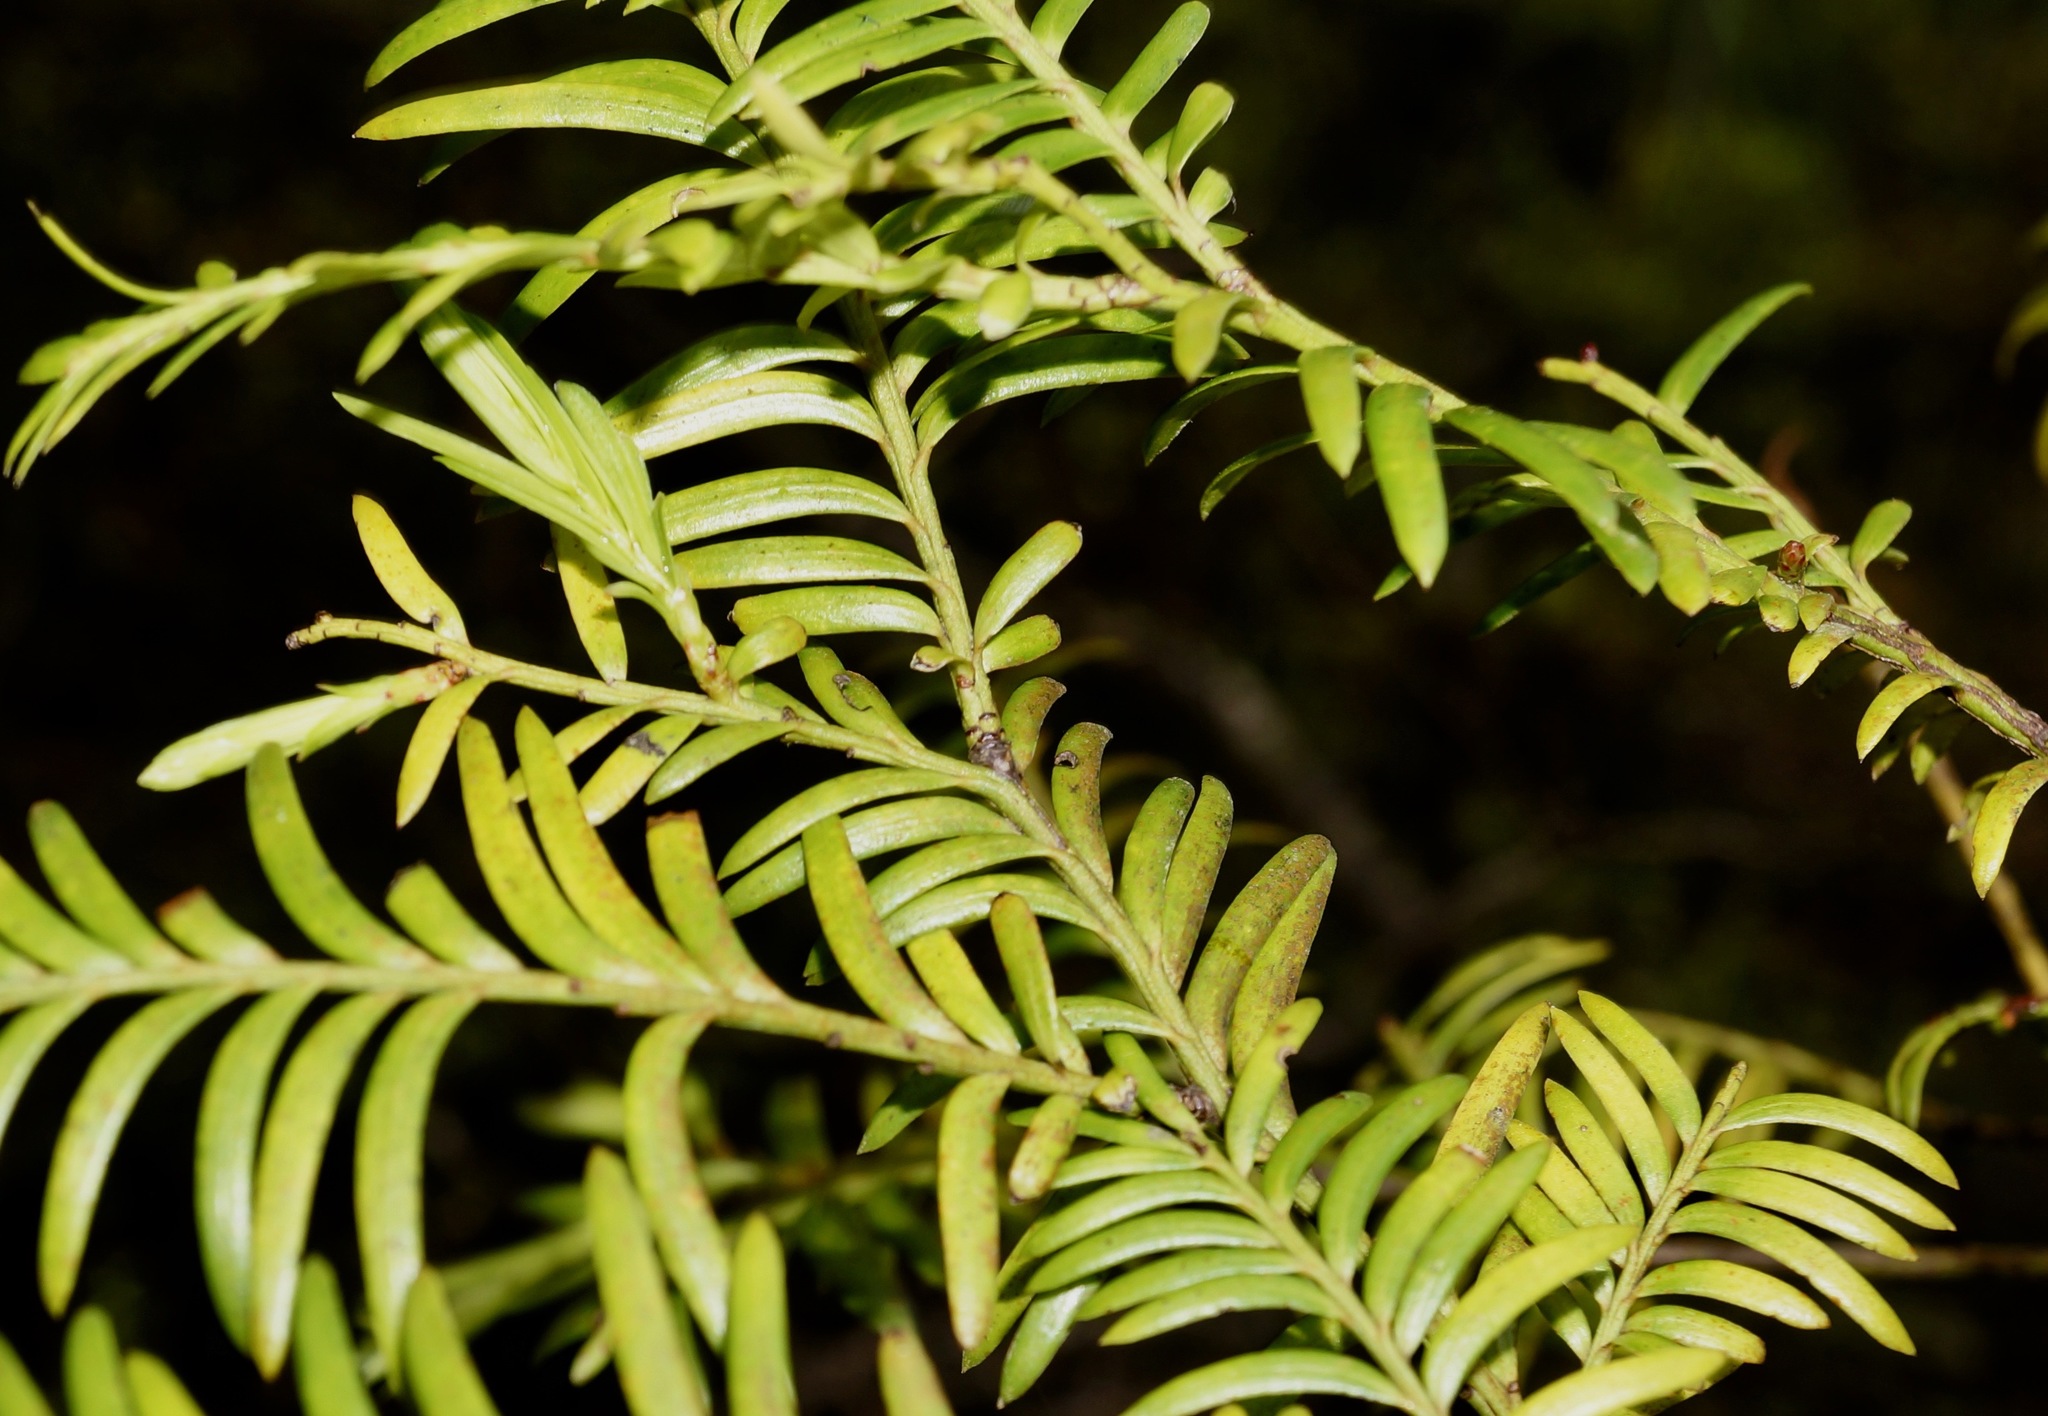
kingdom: Plantae
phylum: Tracheophyta
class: Pinopsida
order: Pinales
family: Podocarpaceae
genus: Prumnopitys
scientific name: Prumnopitys ferruginea
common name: Brown pine
